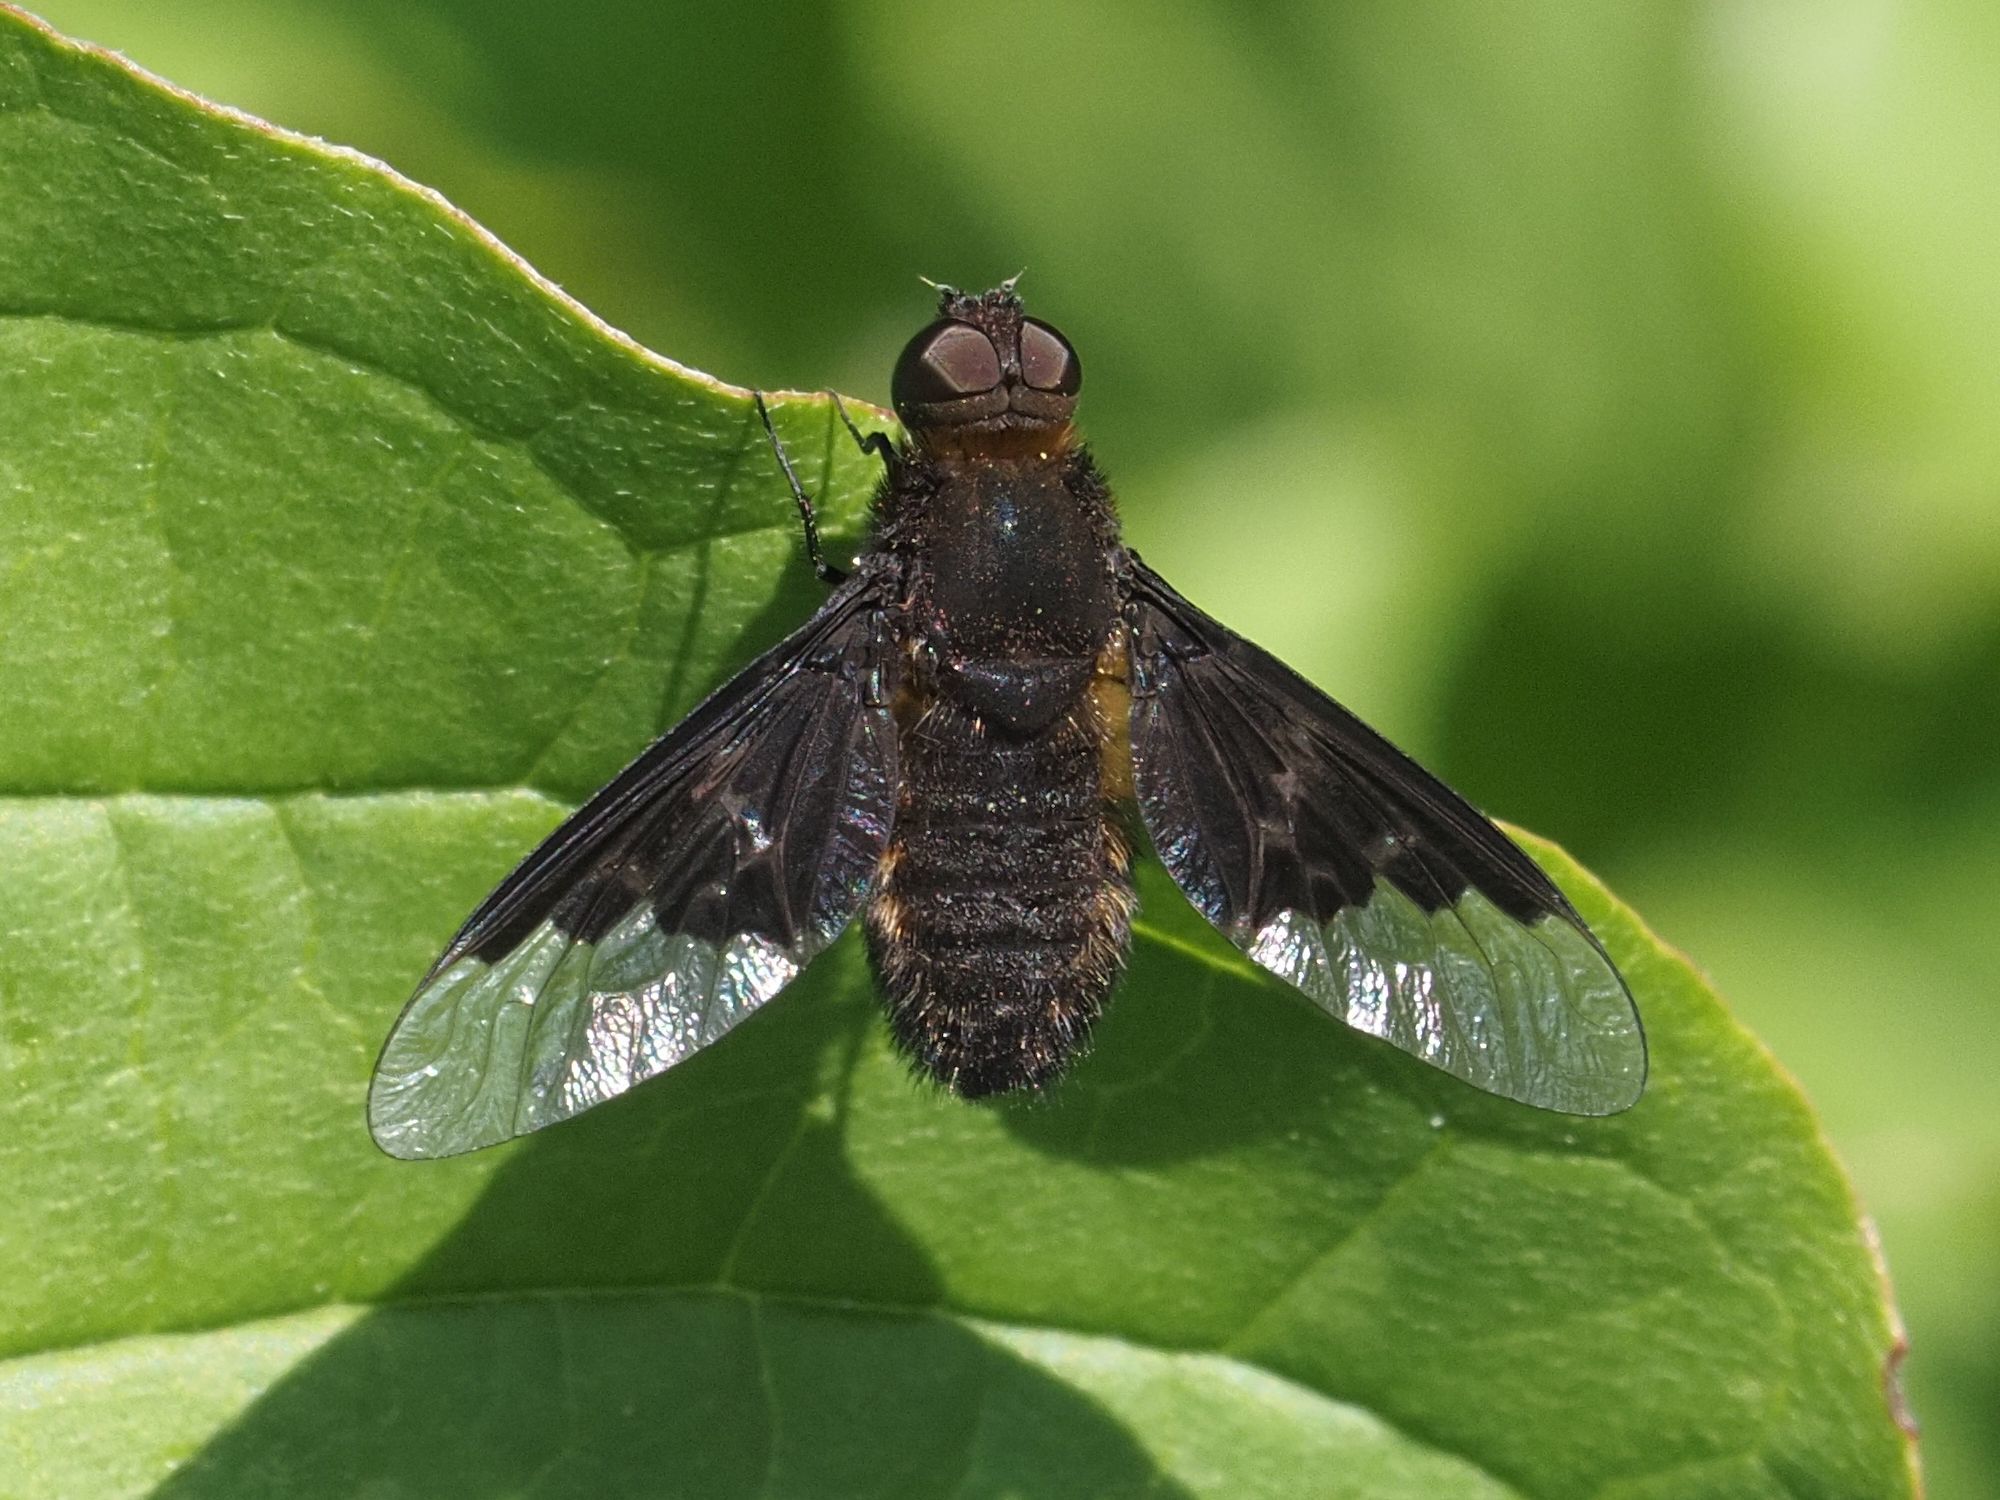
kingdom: Animalia
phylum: Arthropoda
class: Insecta
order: Diptera
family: Bombyliidae
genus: Hemipenthes
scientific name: Hemipenthes morio
